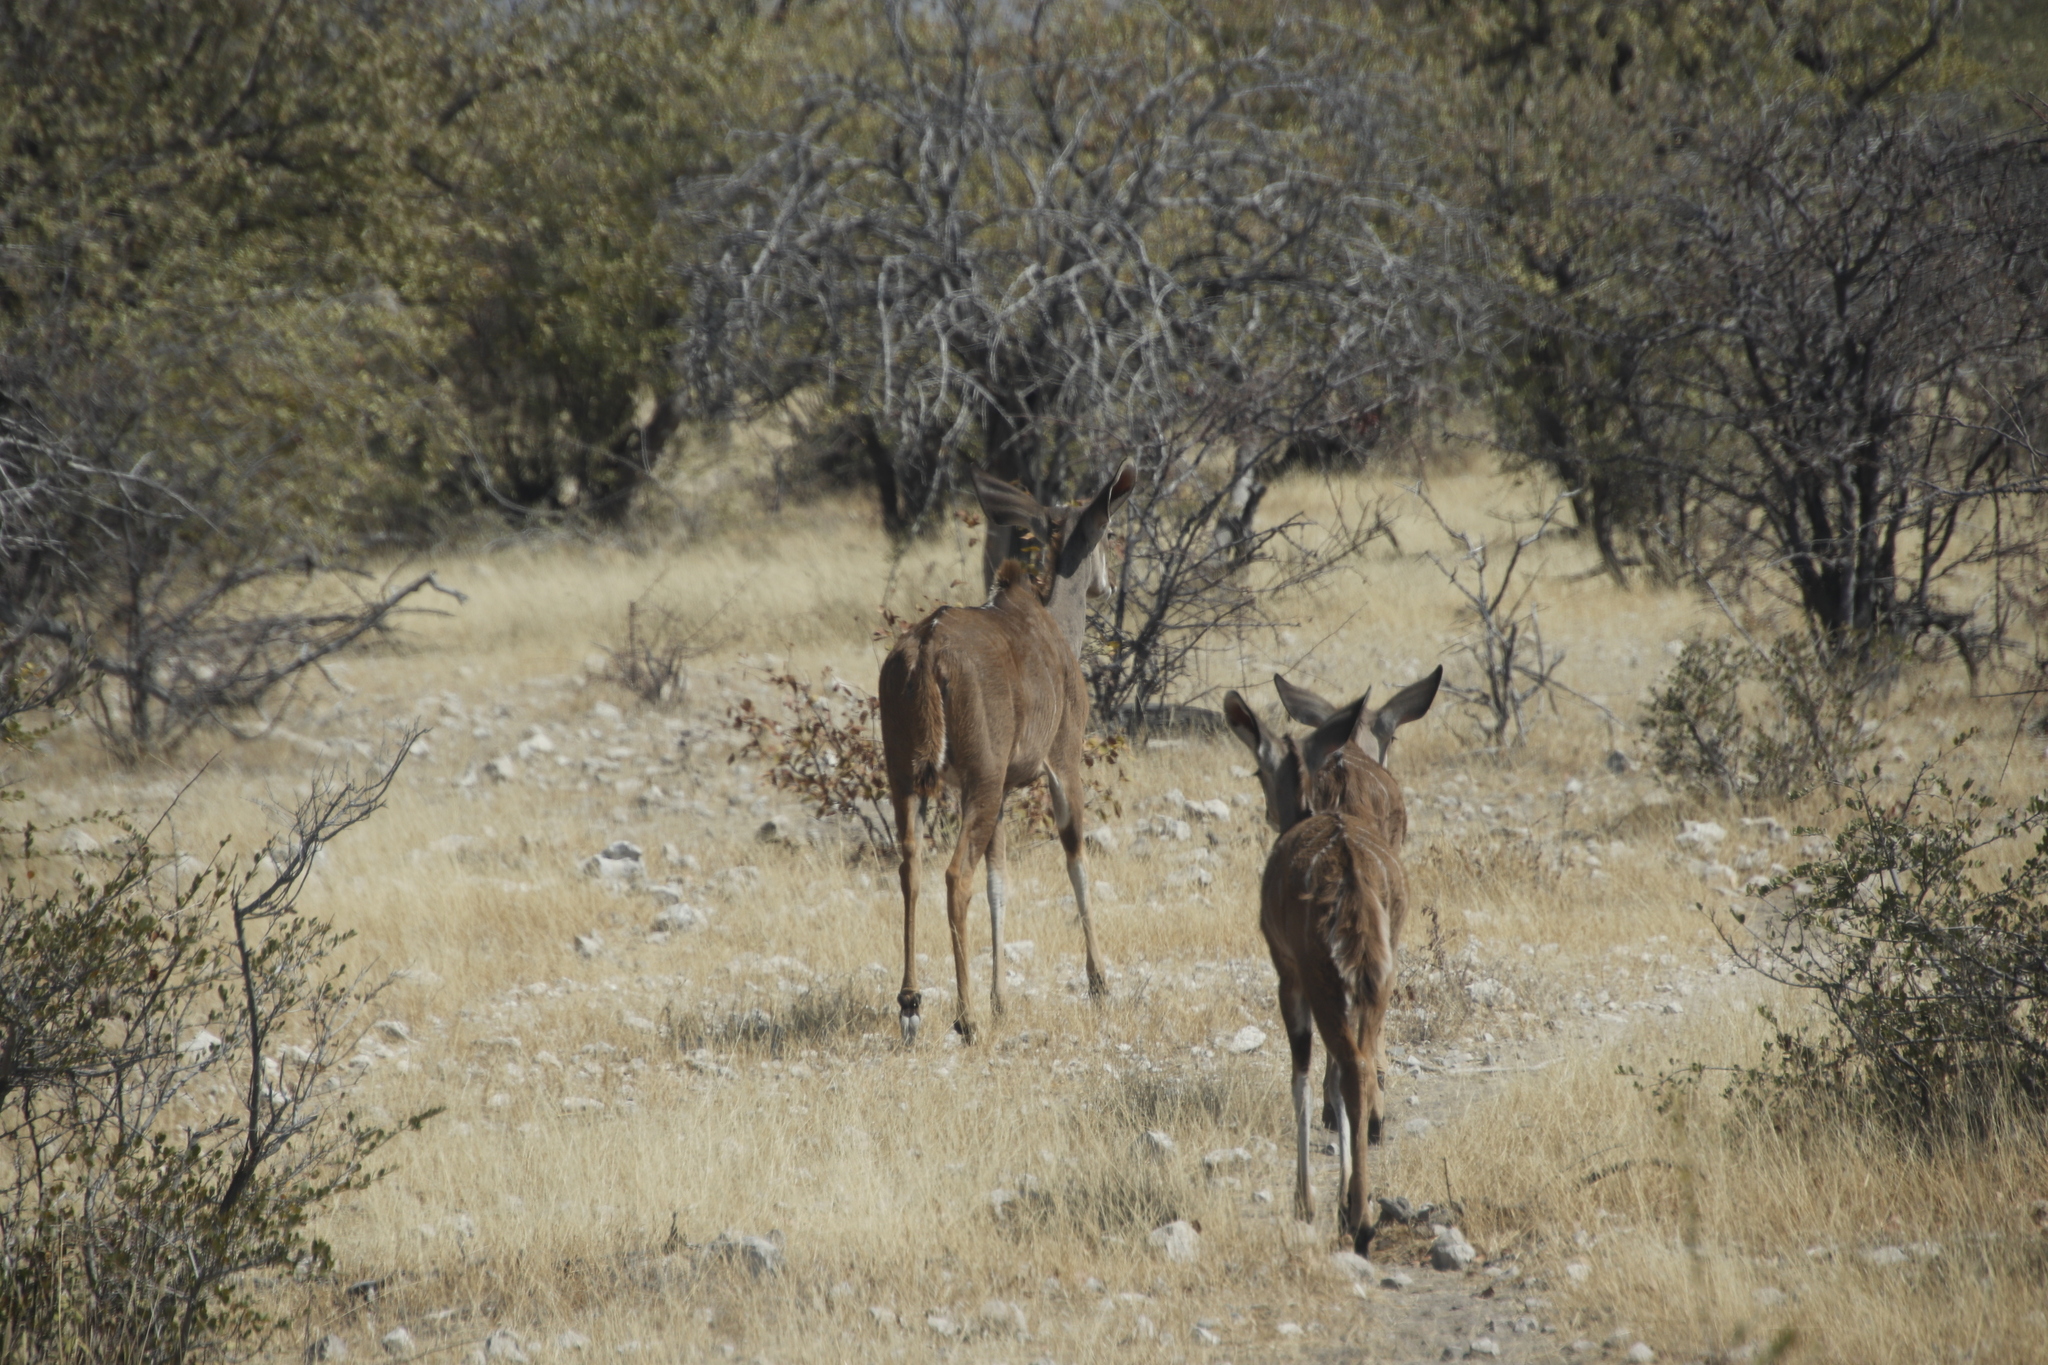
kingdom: Animalia
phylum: Chordata
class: Mammalia
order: Artiodactyla
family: Bovidae
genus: Tragelaphus
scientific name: Tragelaphus strepsiceros
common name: Greater kudu
